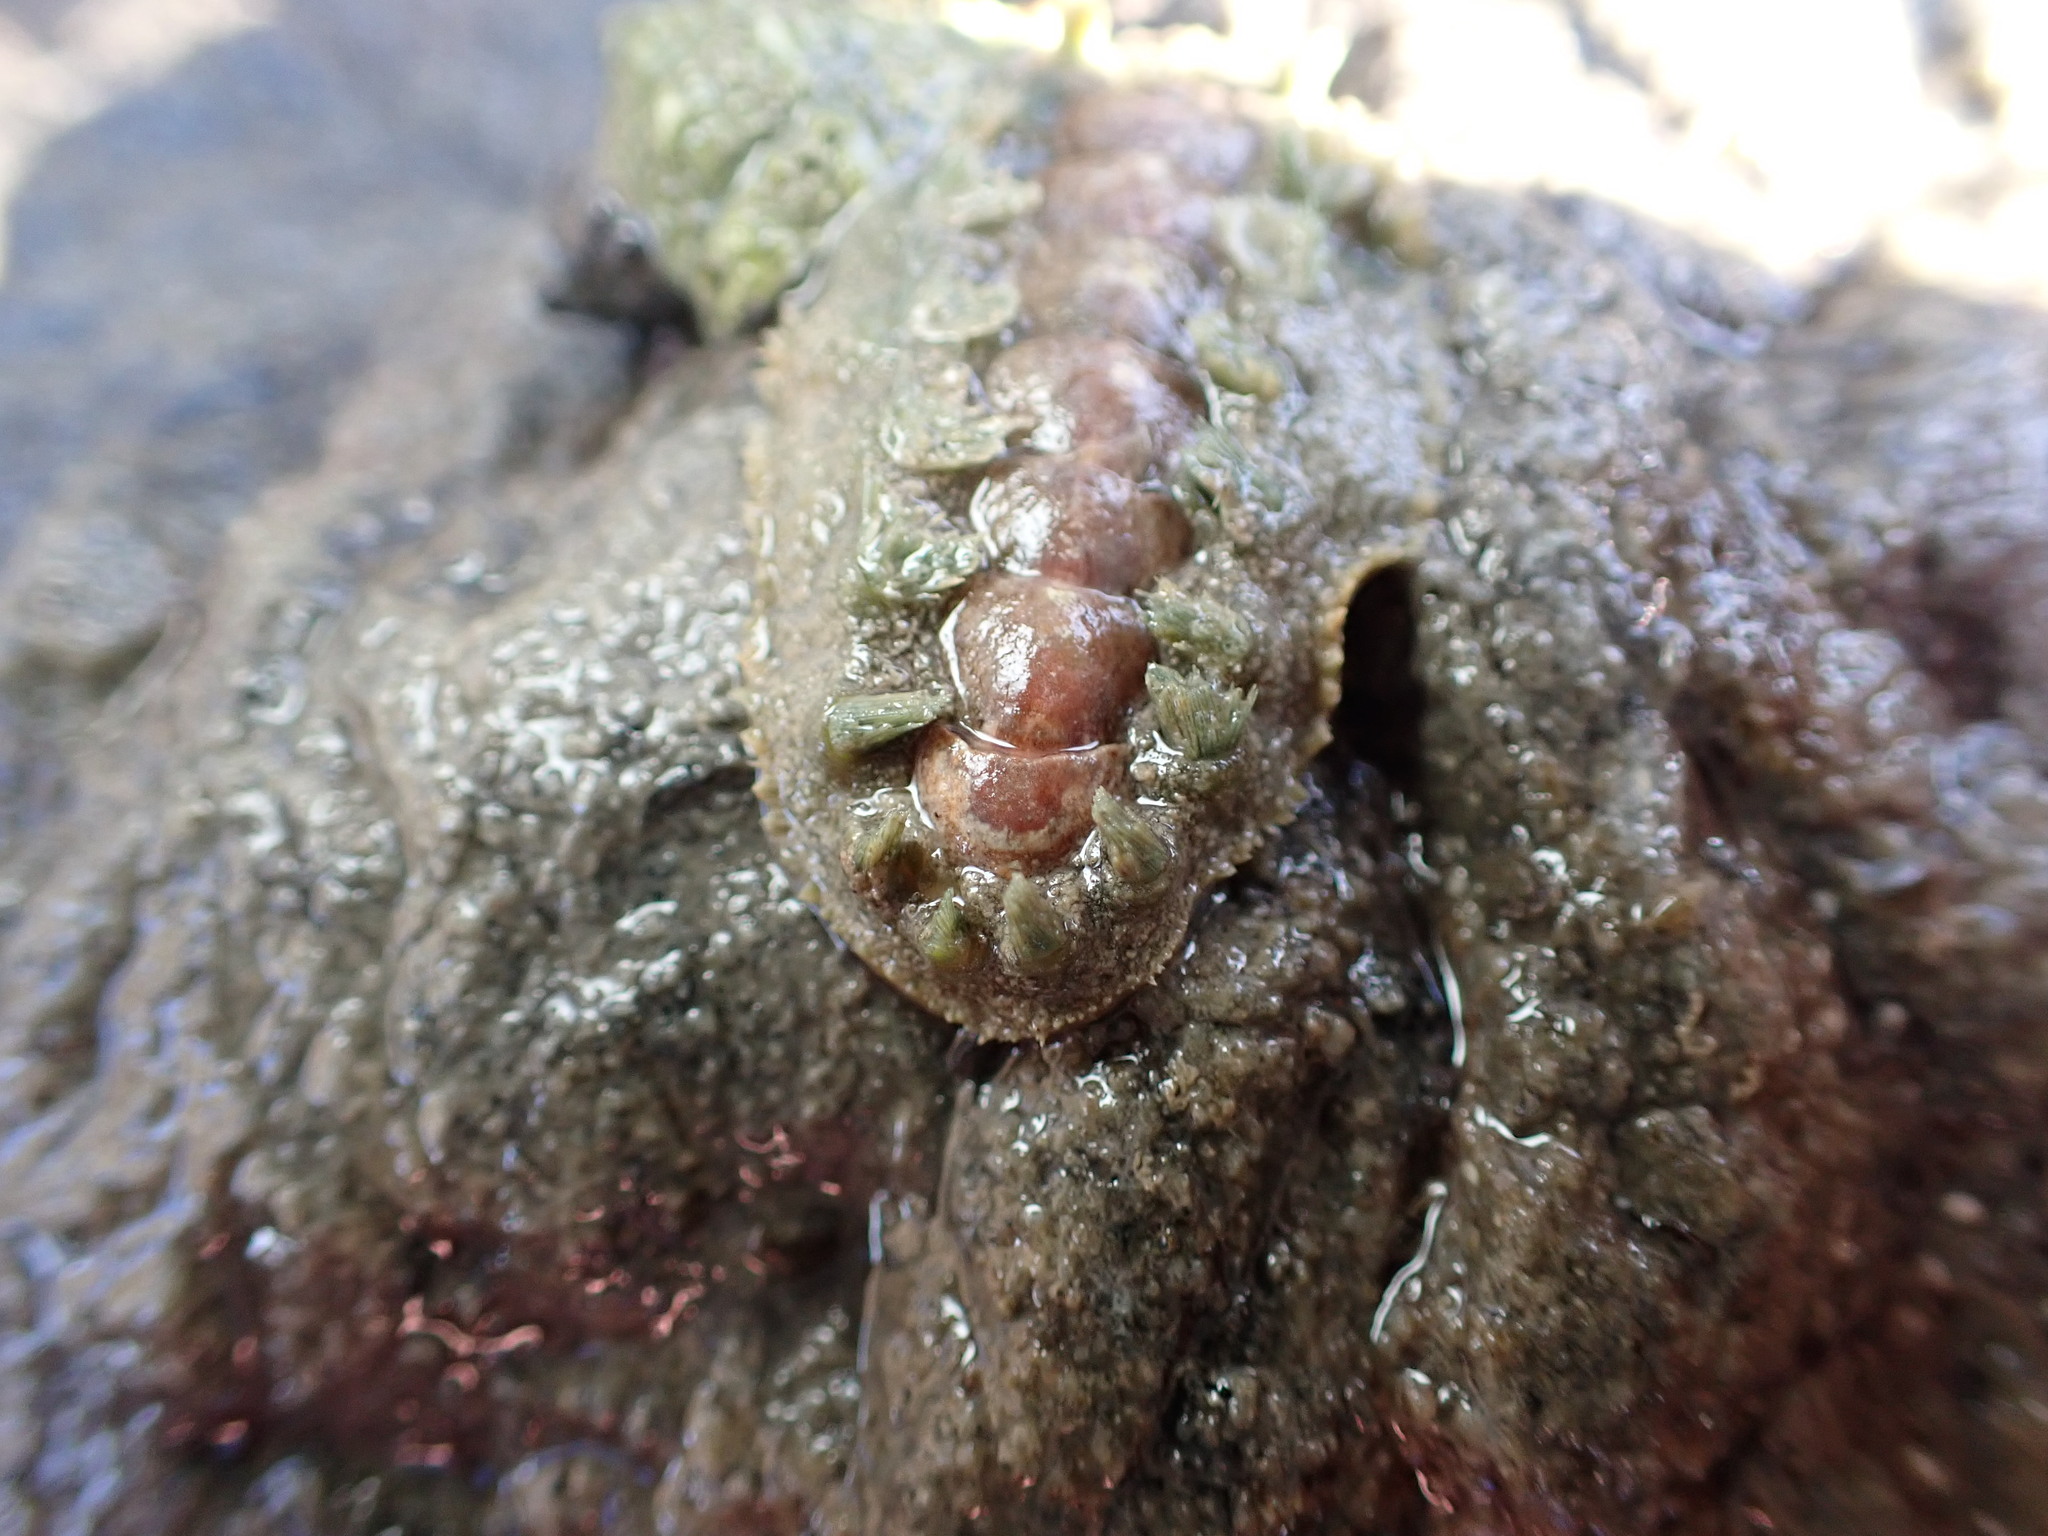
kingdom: Animalia
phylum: Mollusca
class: Polyplacophora
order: Chitonida
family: Acanthochitonidae
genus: Acanthochitona
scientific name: Acanthochitona zelandica
